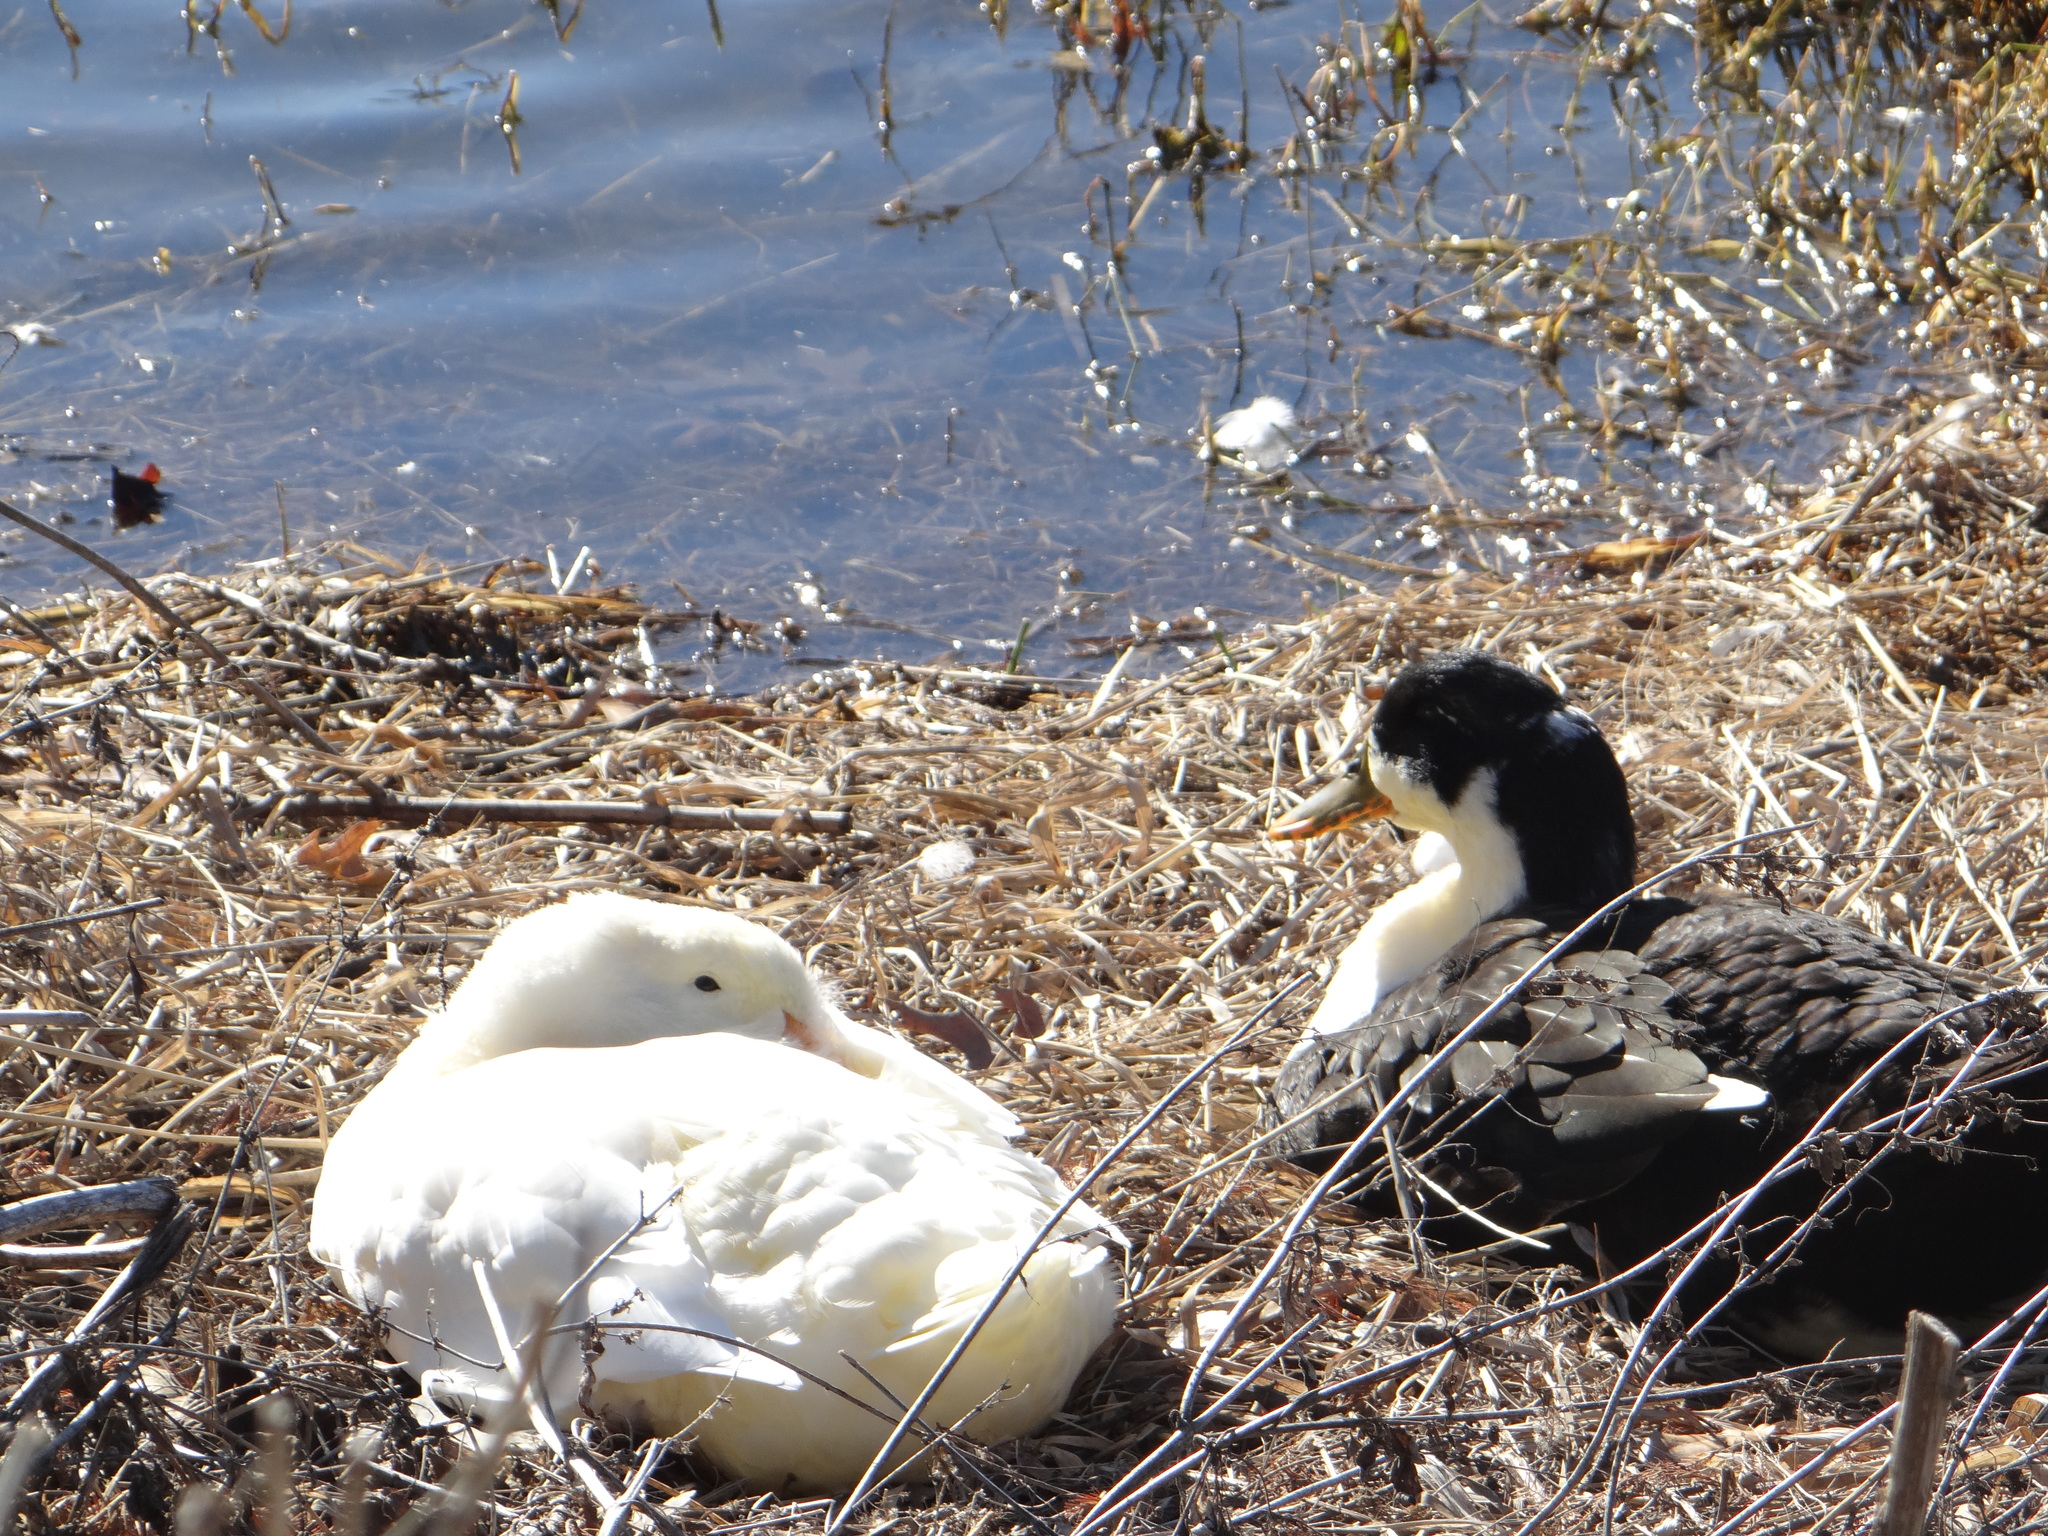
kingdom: Animalia
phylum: Chordata
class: Aves
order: Anseriformes
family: Anatidae
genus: Anas
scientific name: Anas platyrhynchos
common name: Mallard
